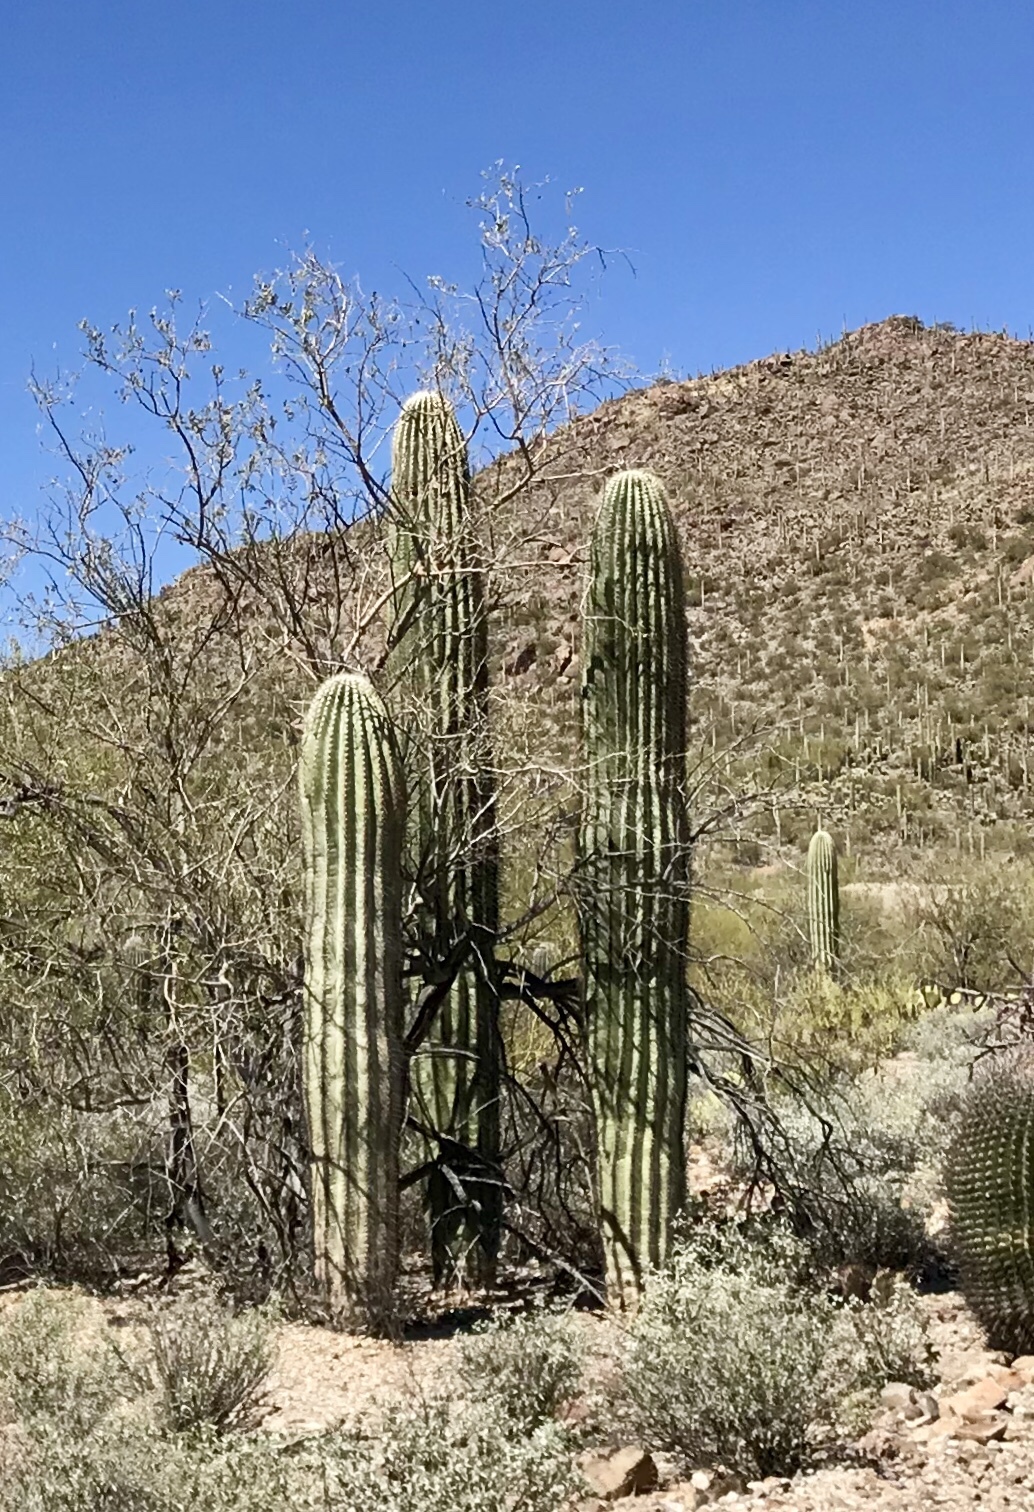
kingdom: Plantae
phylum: Tracheophyta
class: Magnoliopsida
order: Caryophyllales
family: Cactaceae
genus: Carnegiea
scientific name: Carnegiea gigantea
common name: Saguaro
